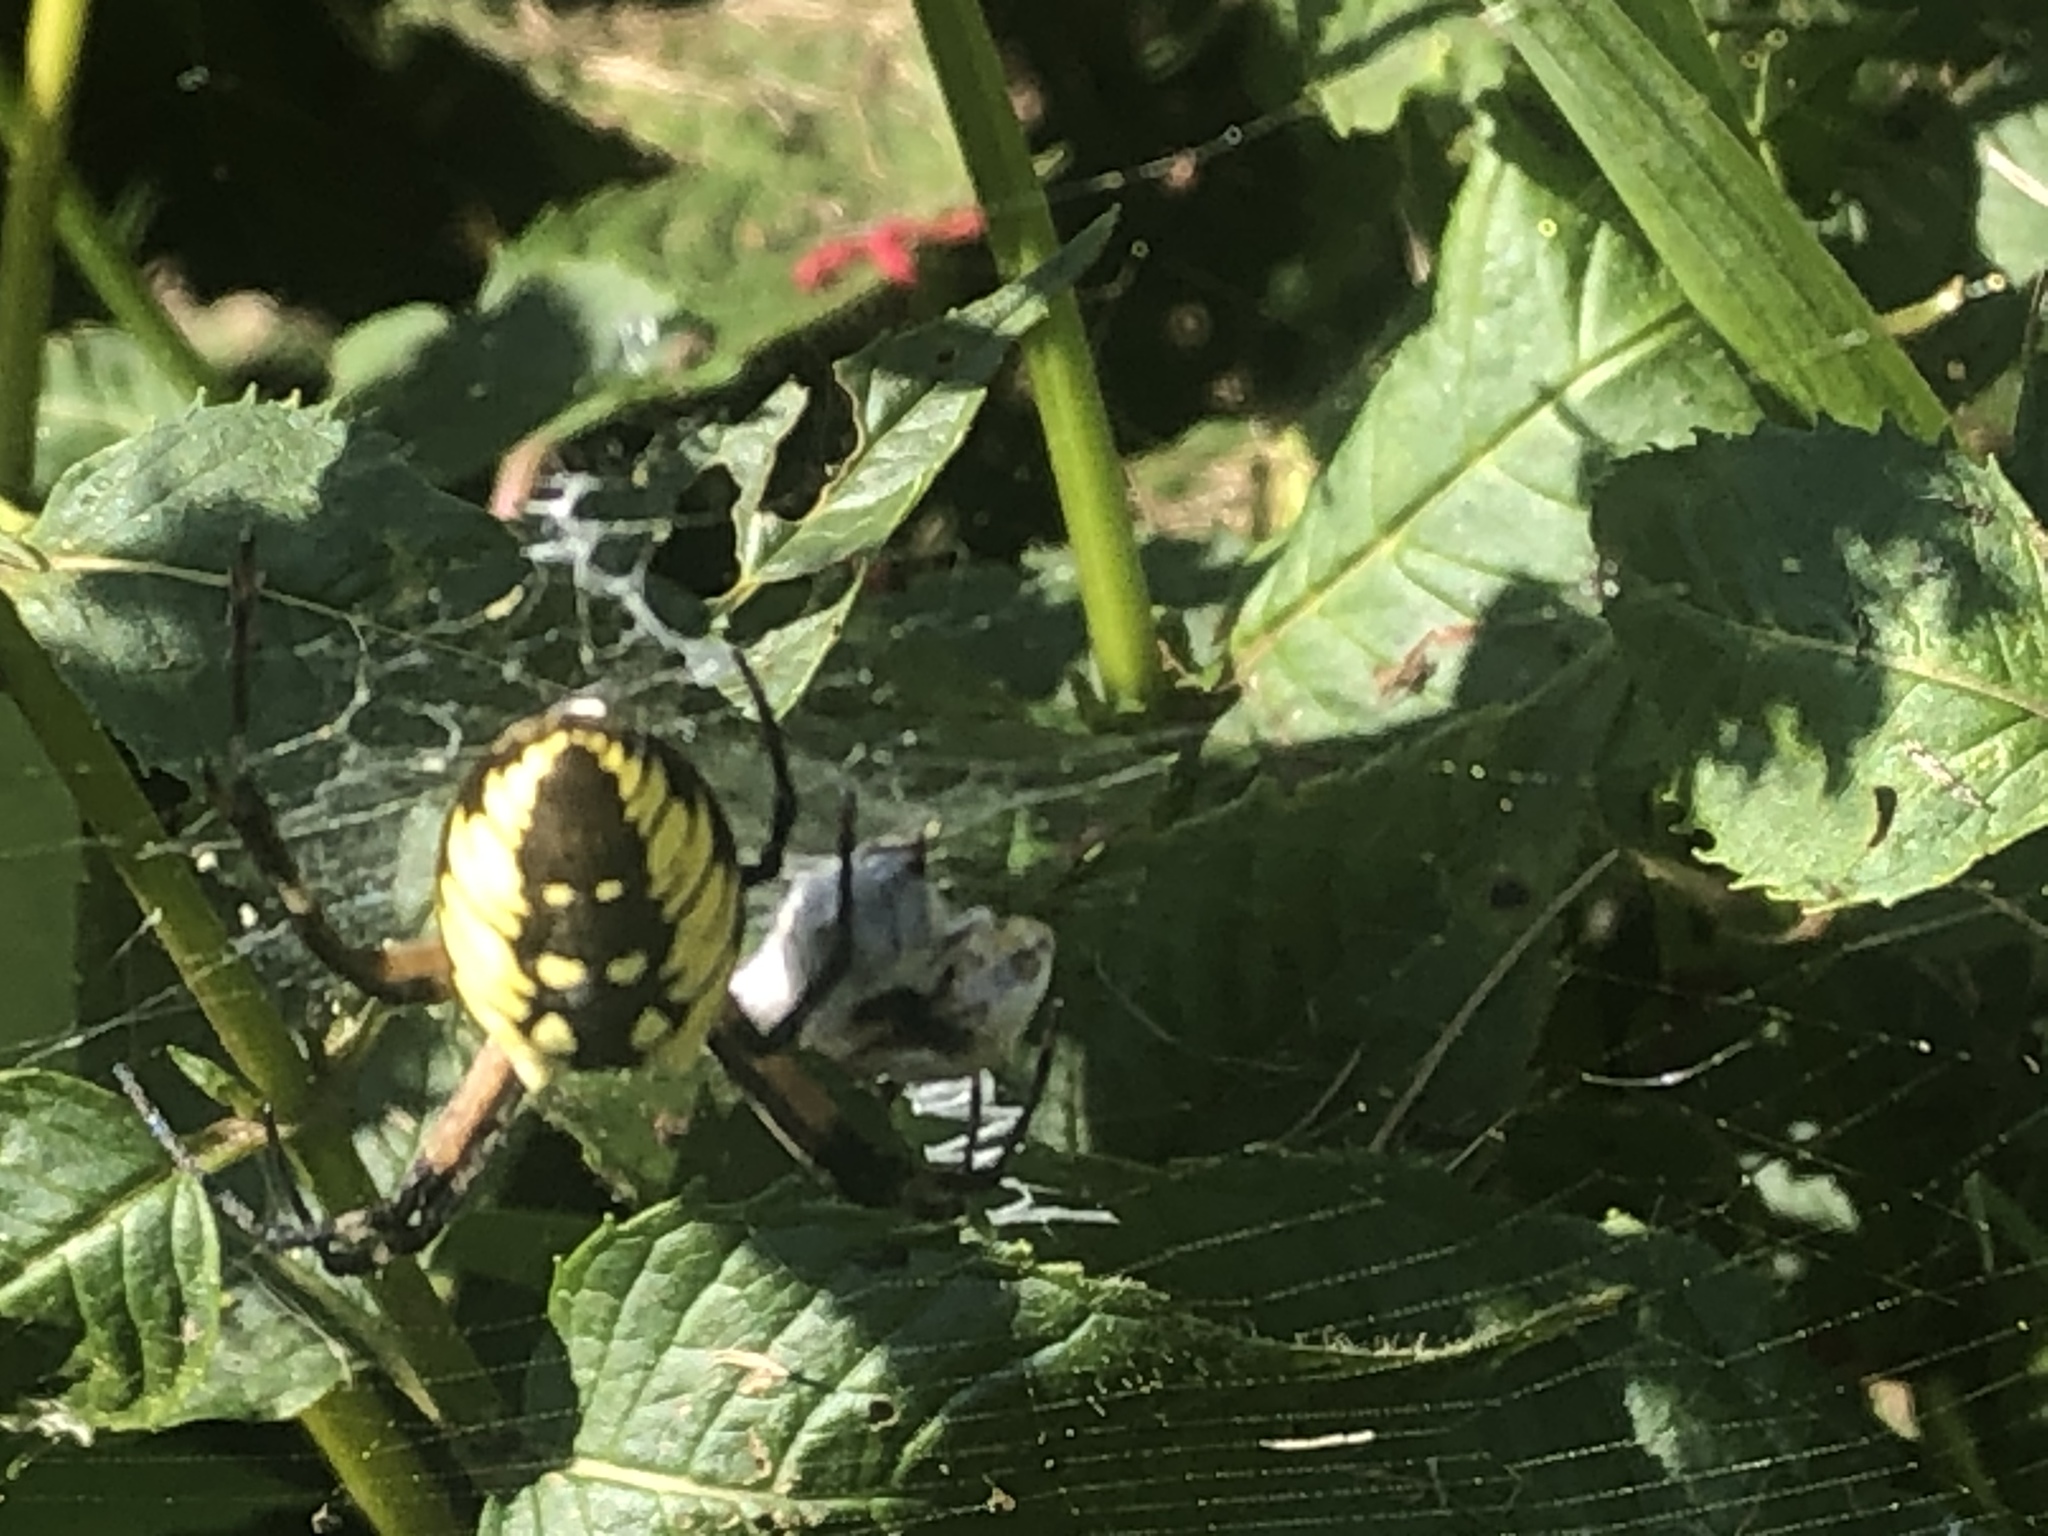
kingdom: Animalia
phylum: Arthropoda
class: Arachnida
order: Araneae
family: Araneidae
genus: Argiope
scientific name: Argiope aurantia
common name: Orb weavers
